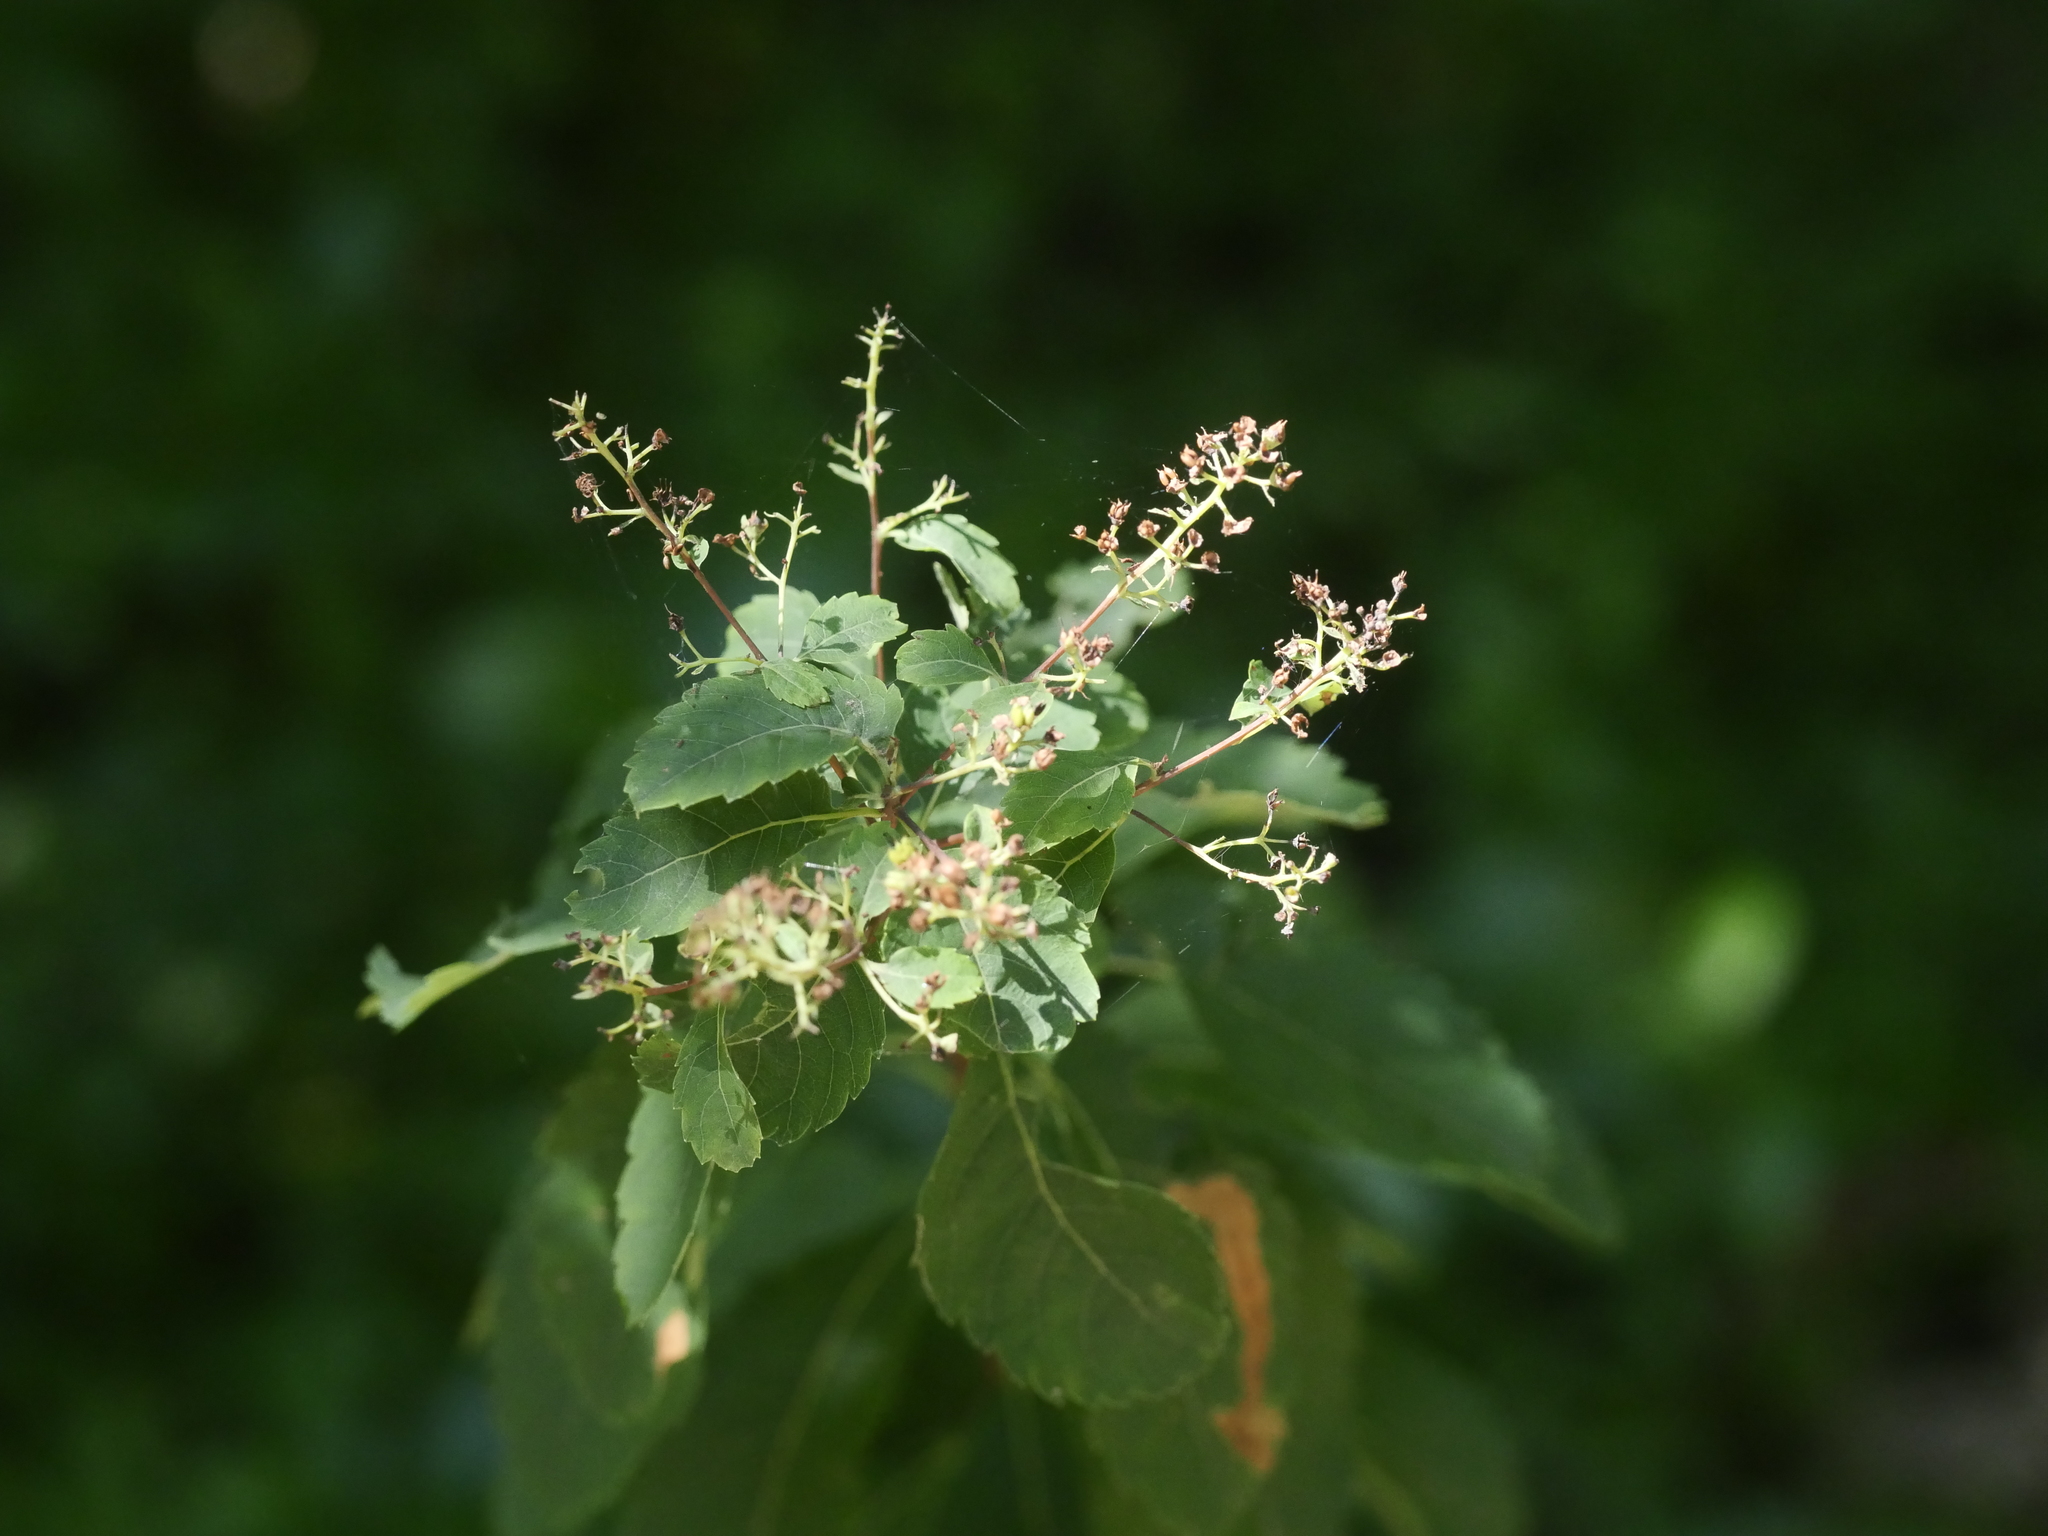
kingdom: Plantae
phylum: Tracheophyta
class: Magnoliopsida
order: Rosales
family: Rosaceae
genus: Spiraea
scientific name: Spiraea alba
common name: Pale bridewort
